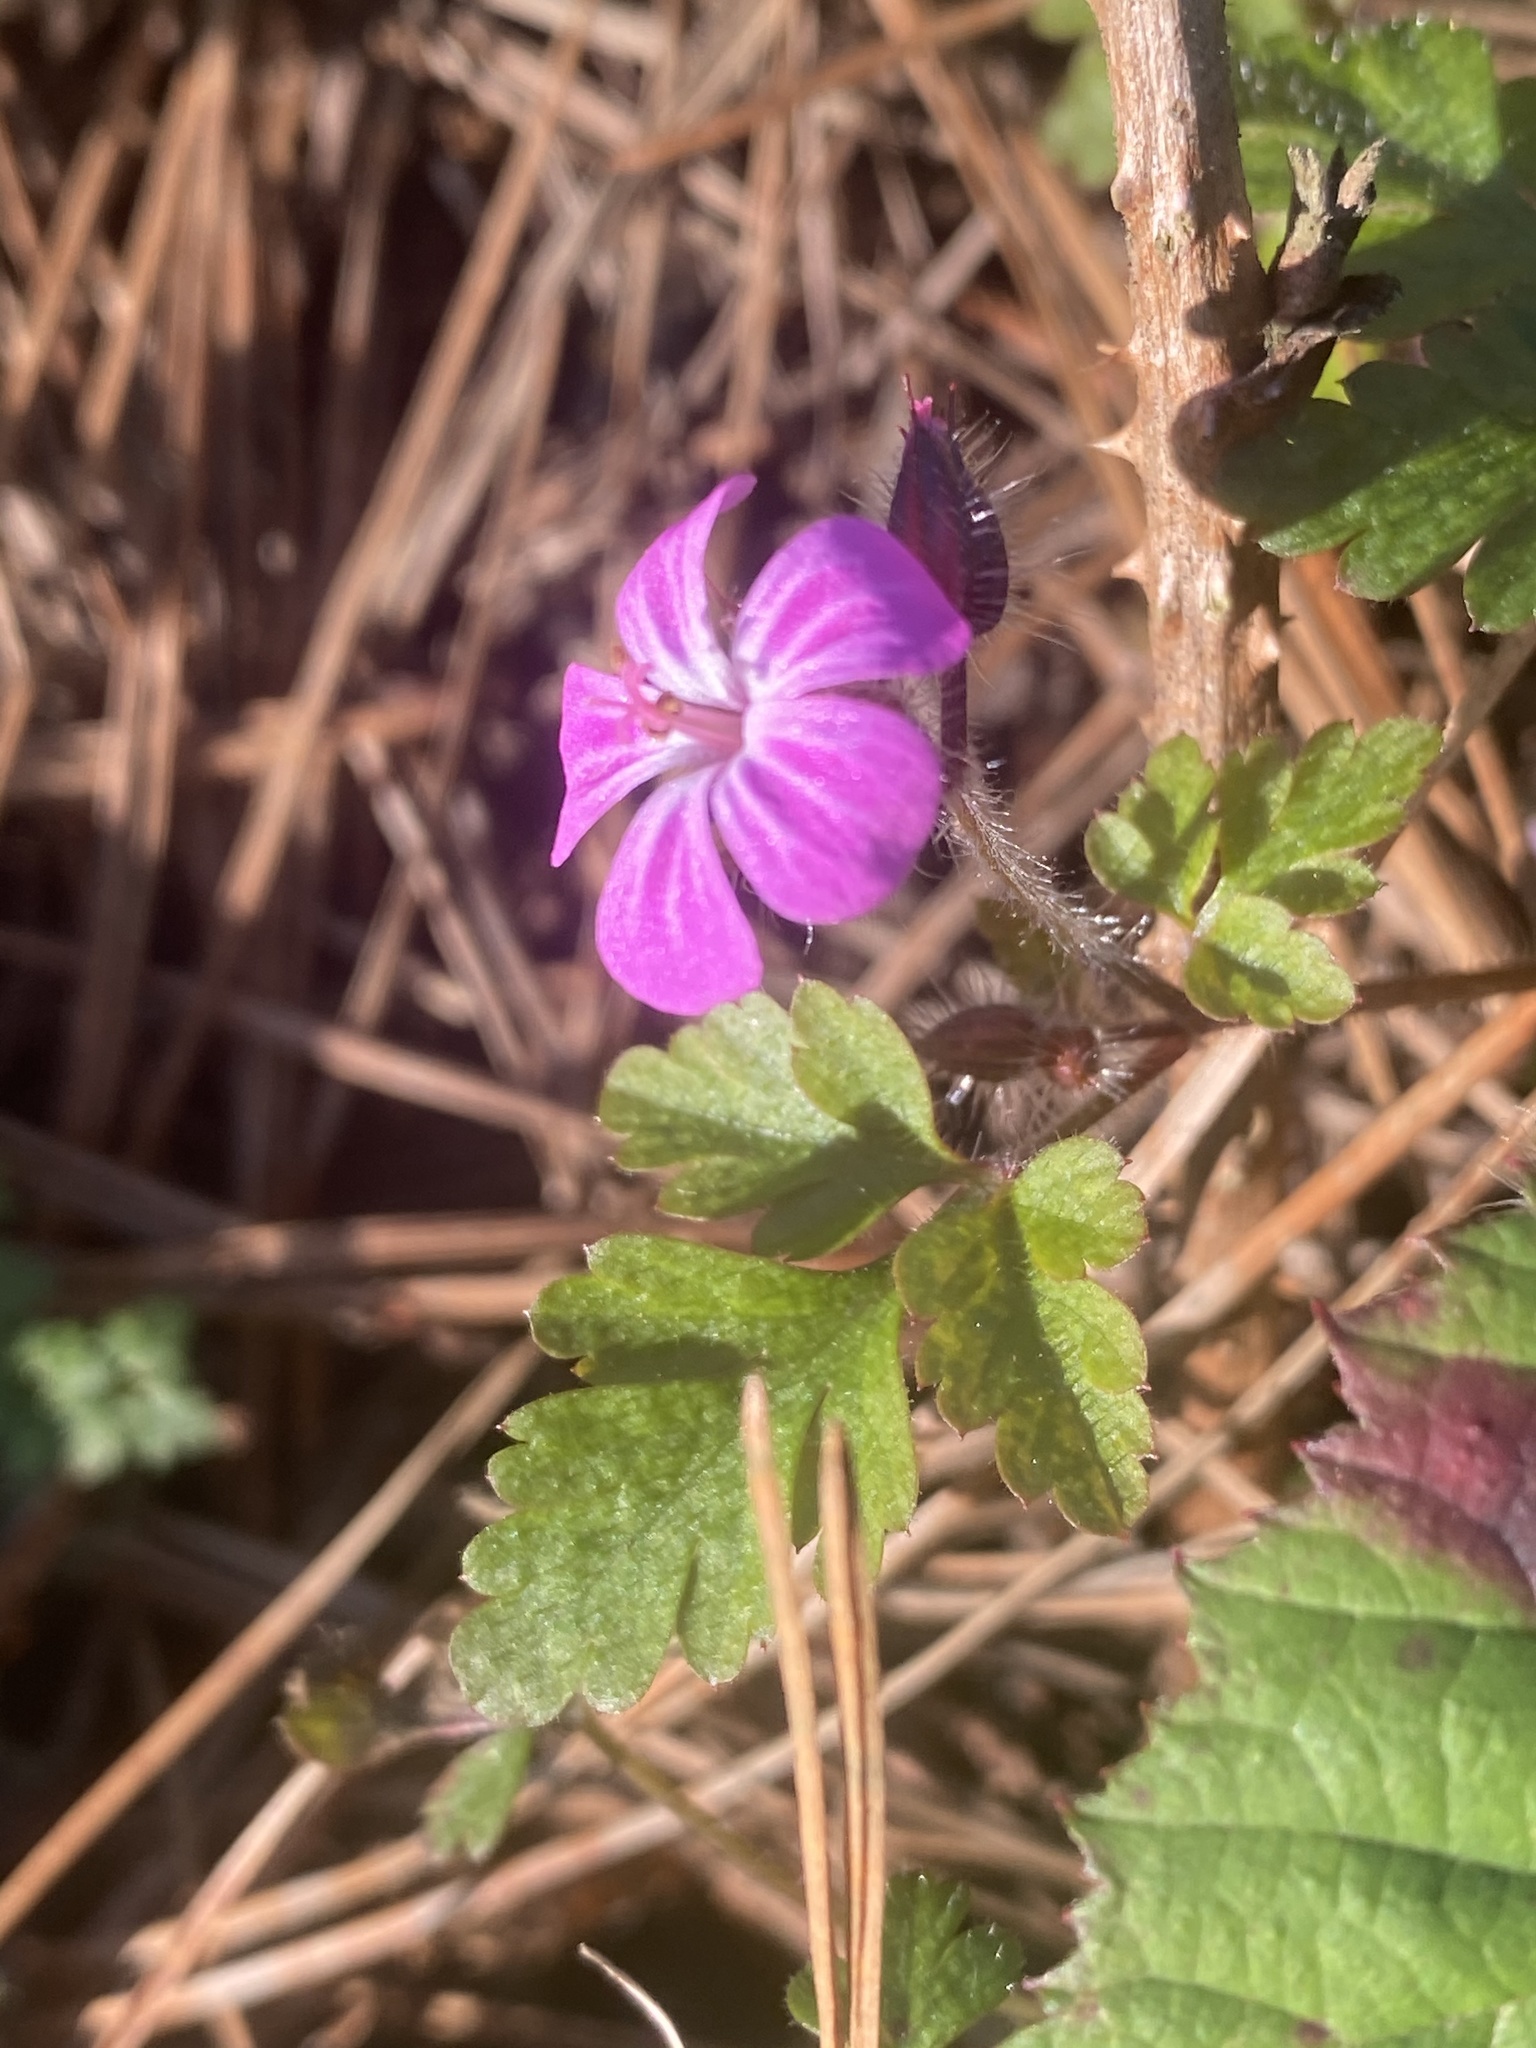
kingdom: Plantae
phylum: Tracheophyta
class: Magnoliopsida
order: Geraniales
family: Geraniaceae
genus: Geranium
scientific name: Geranium robertianum
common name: Herb-robert
